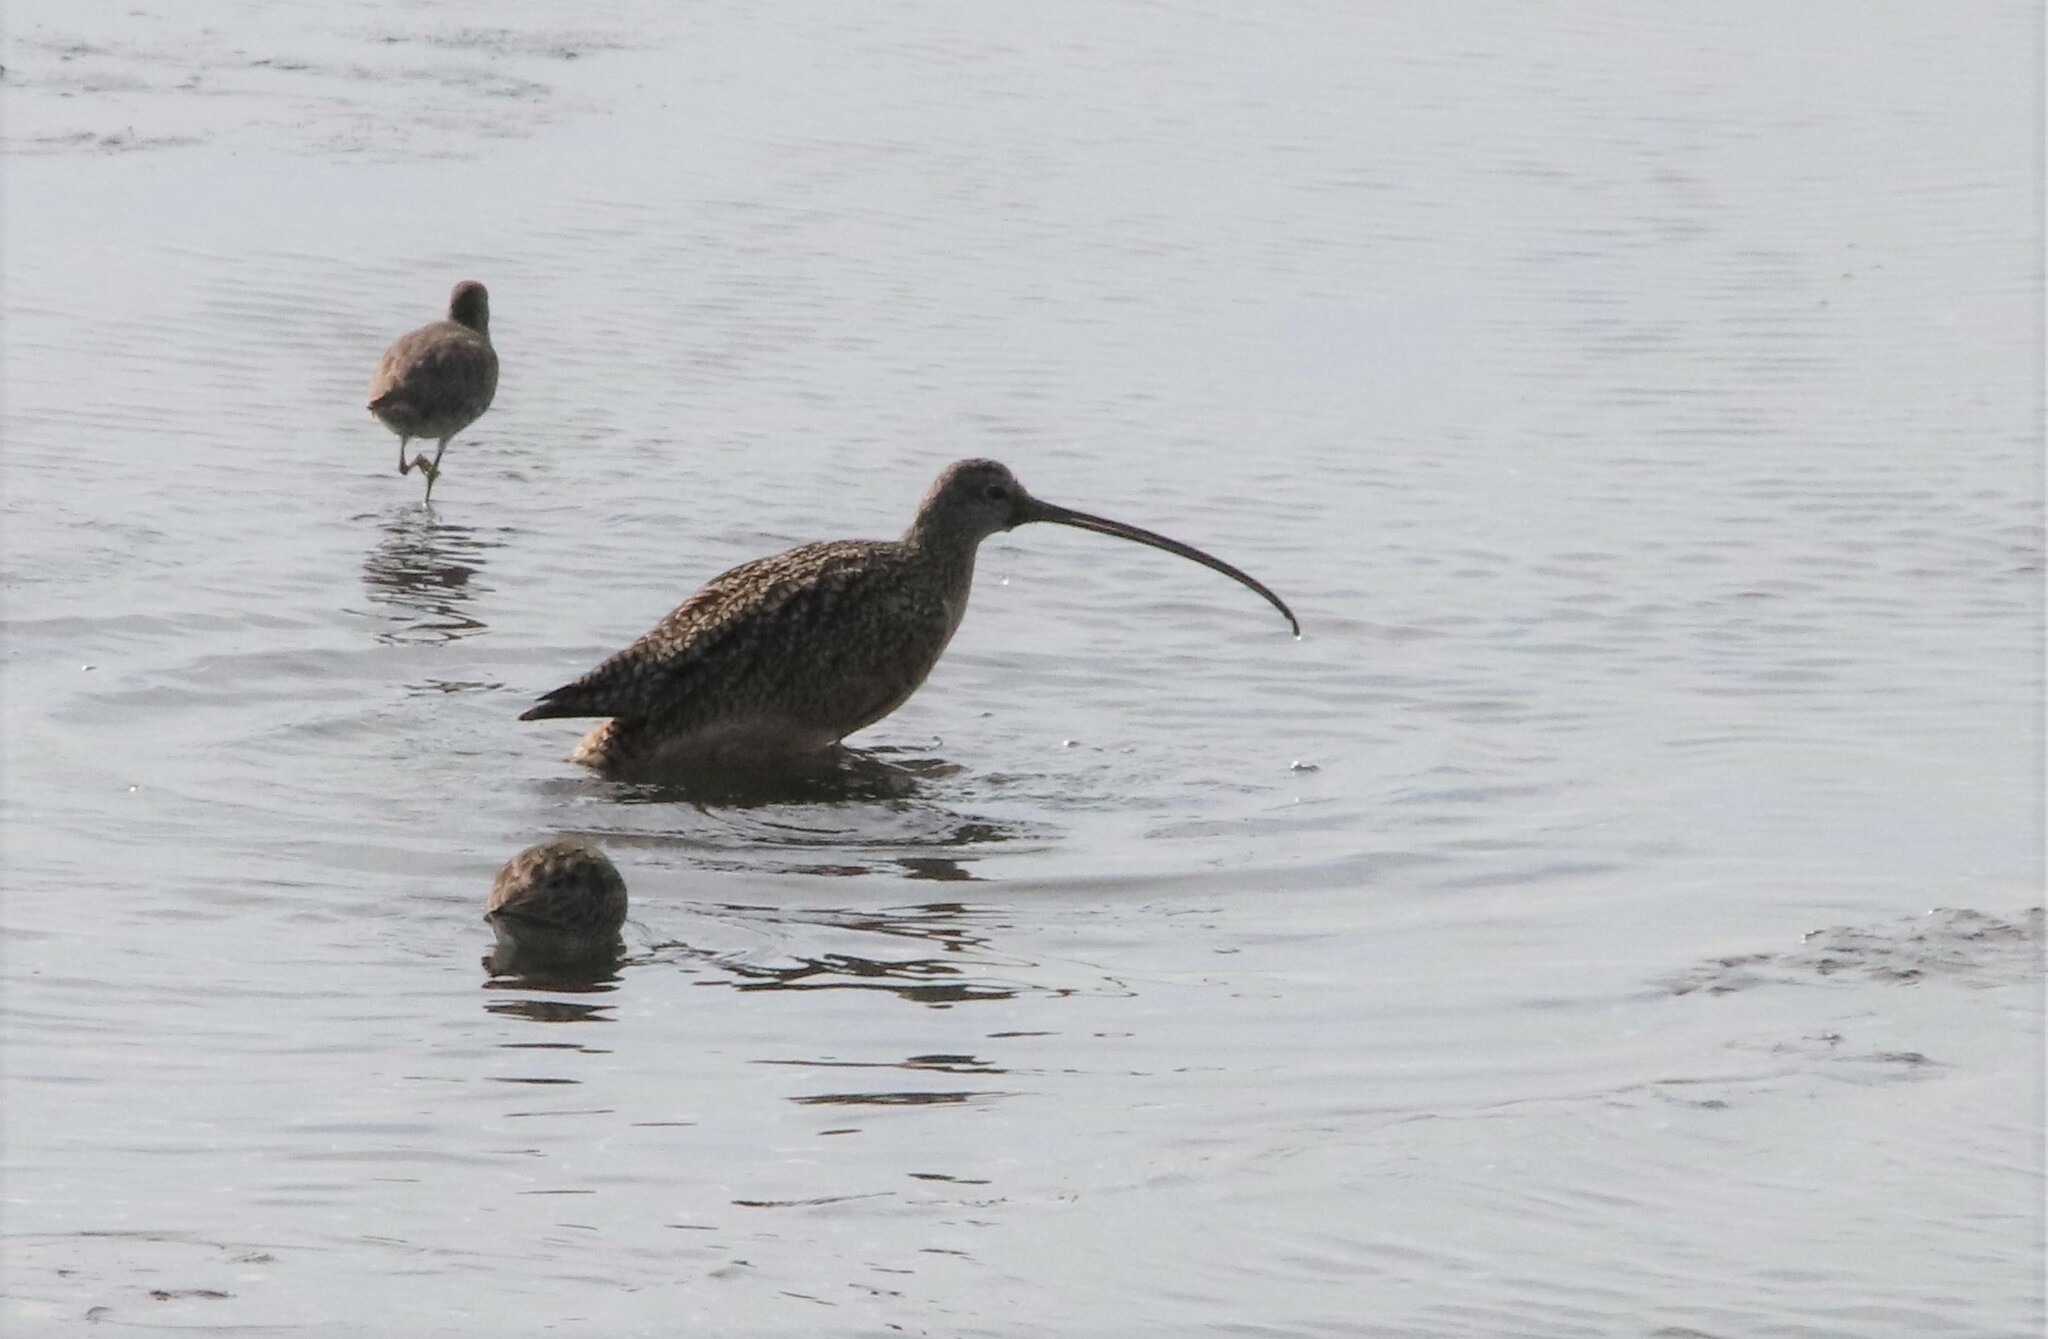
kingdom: Animalia
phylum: Chordata
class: Aves
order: Charadriiformes
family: Scolopacidae
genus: Numenius
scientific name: Numenius americanus
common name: Long-billed curlew
